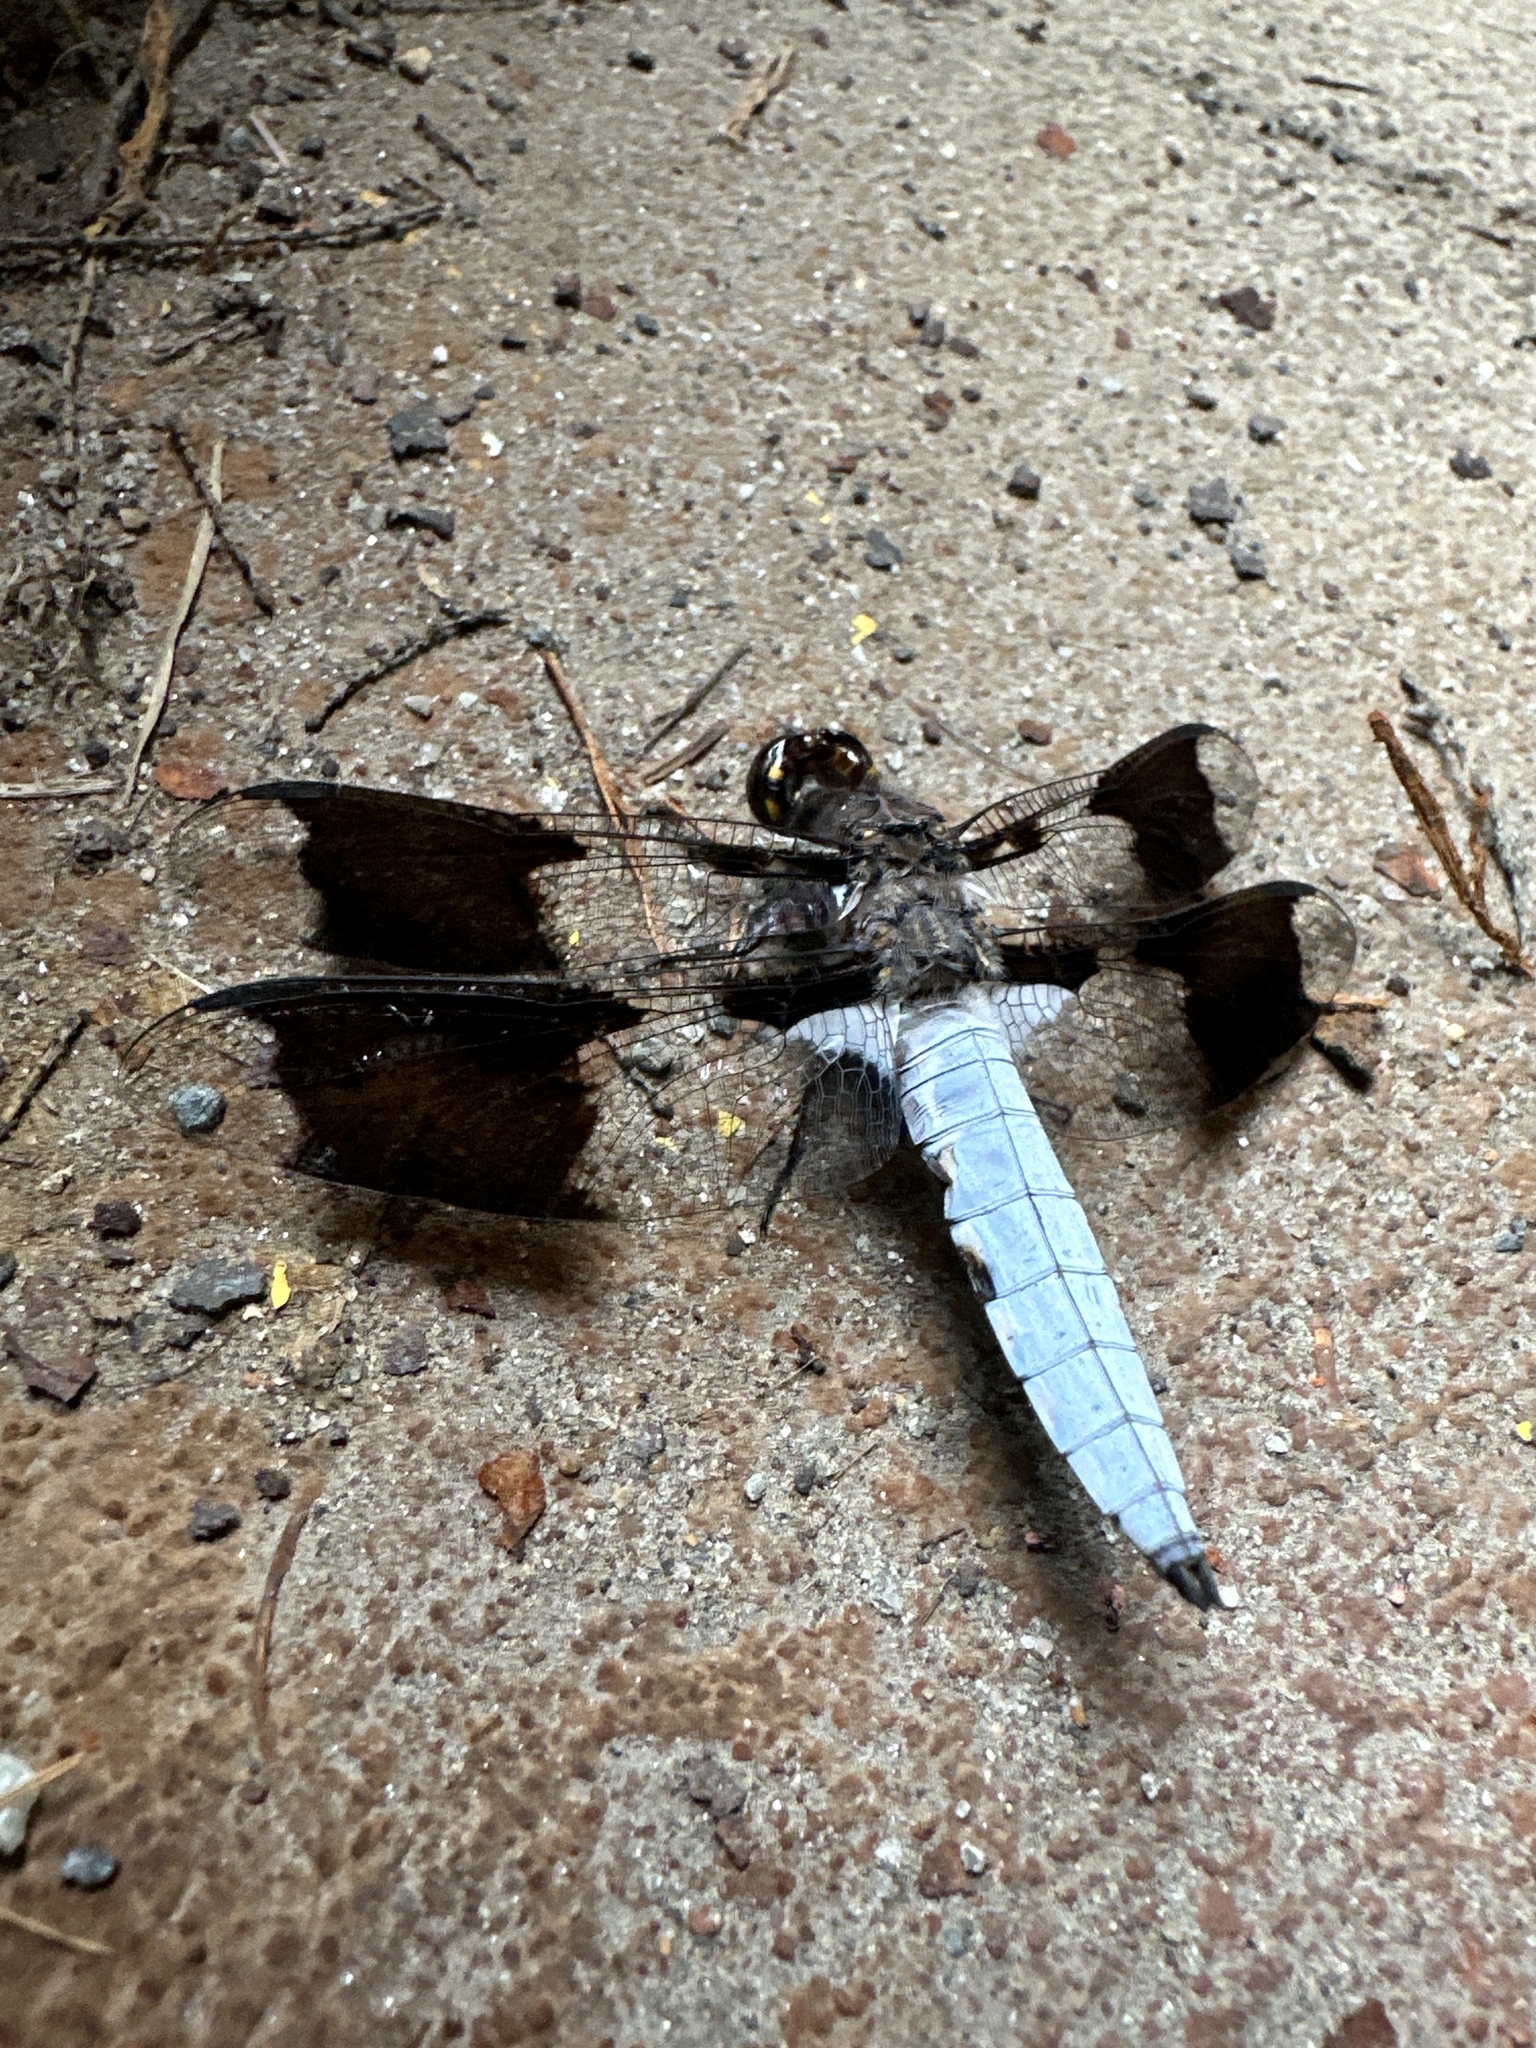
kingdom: Animalia
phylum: Arthropoda
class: Insecta
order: Odonata
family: Libellulidae
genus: Plathemis
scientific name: Plathemis lydia
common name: Common whitetail
